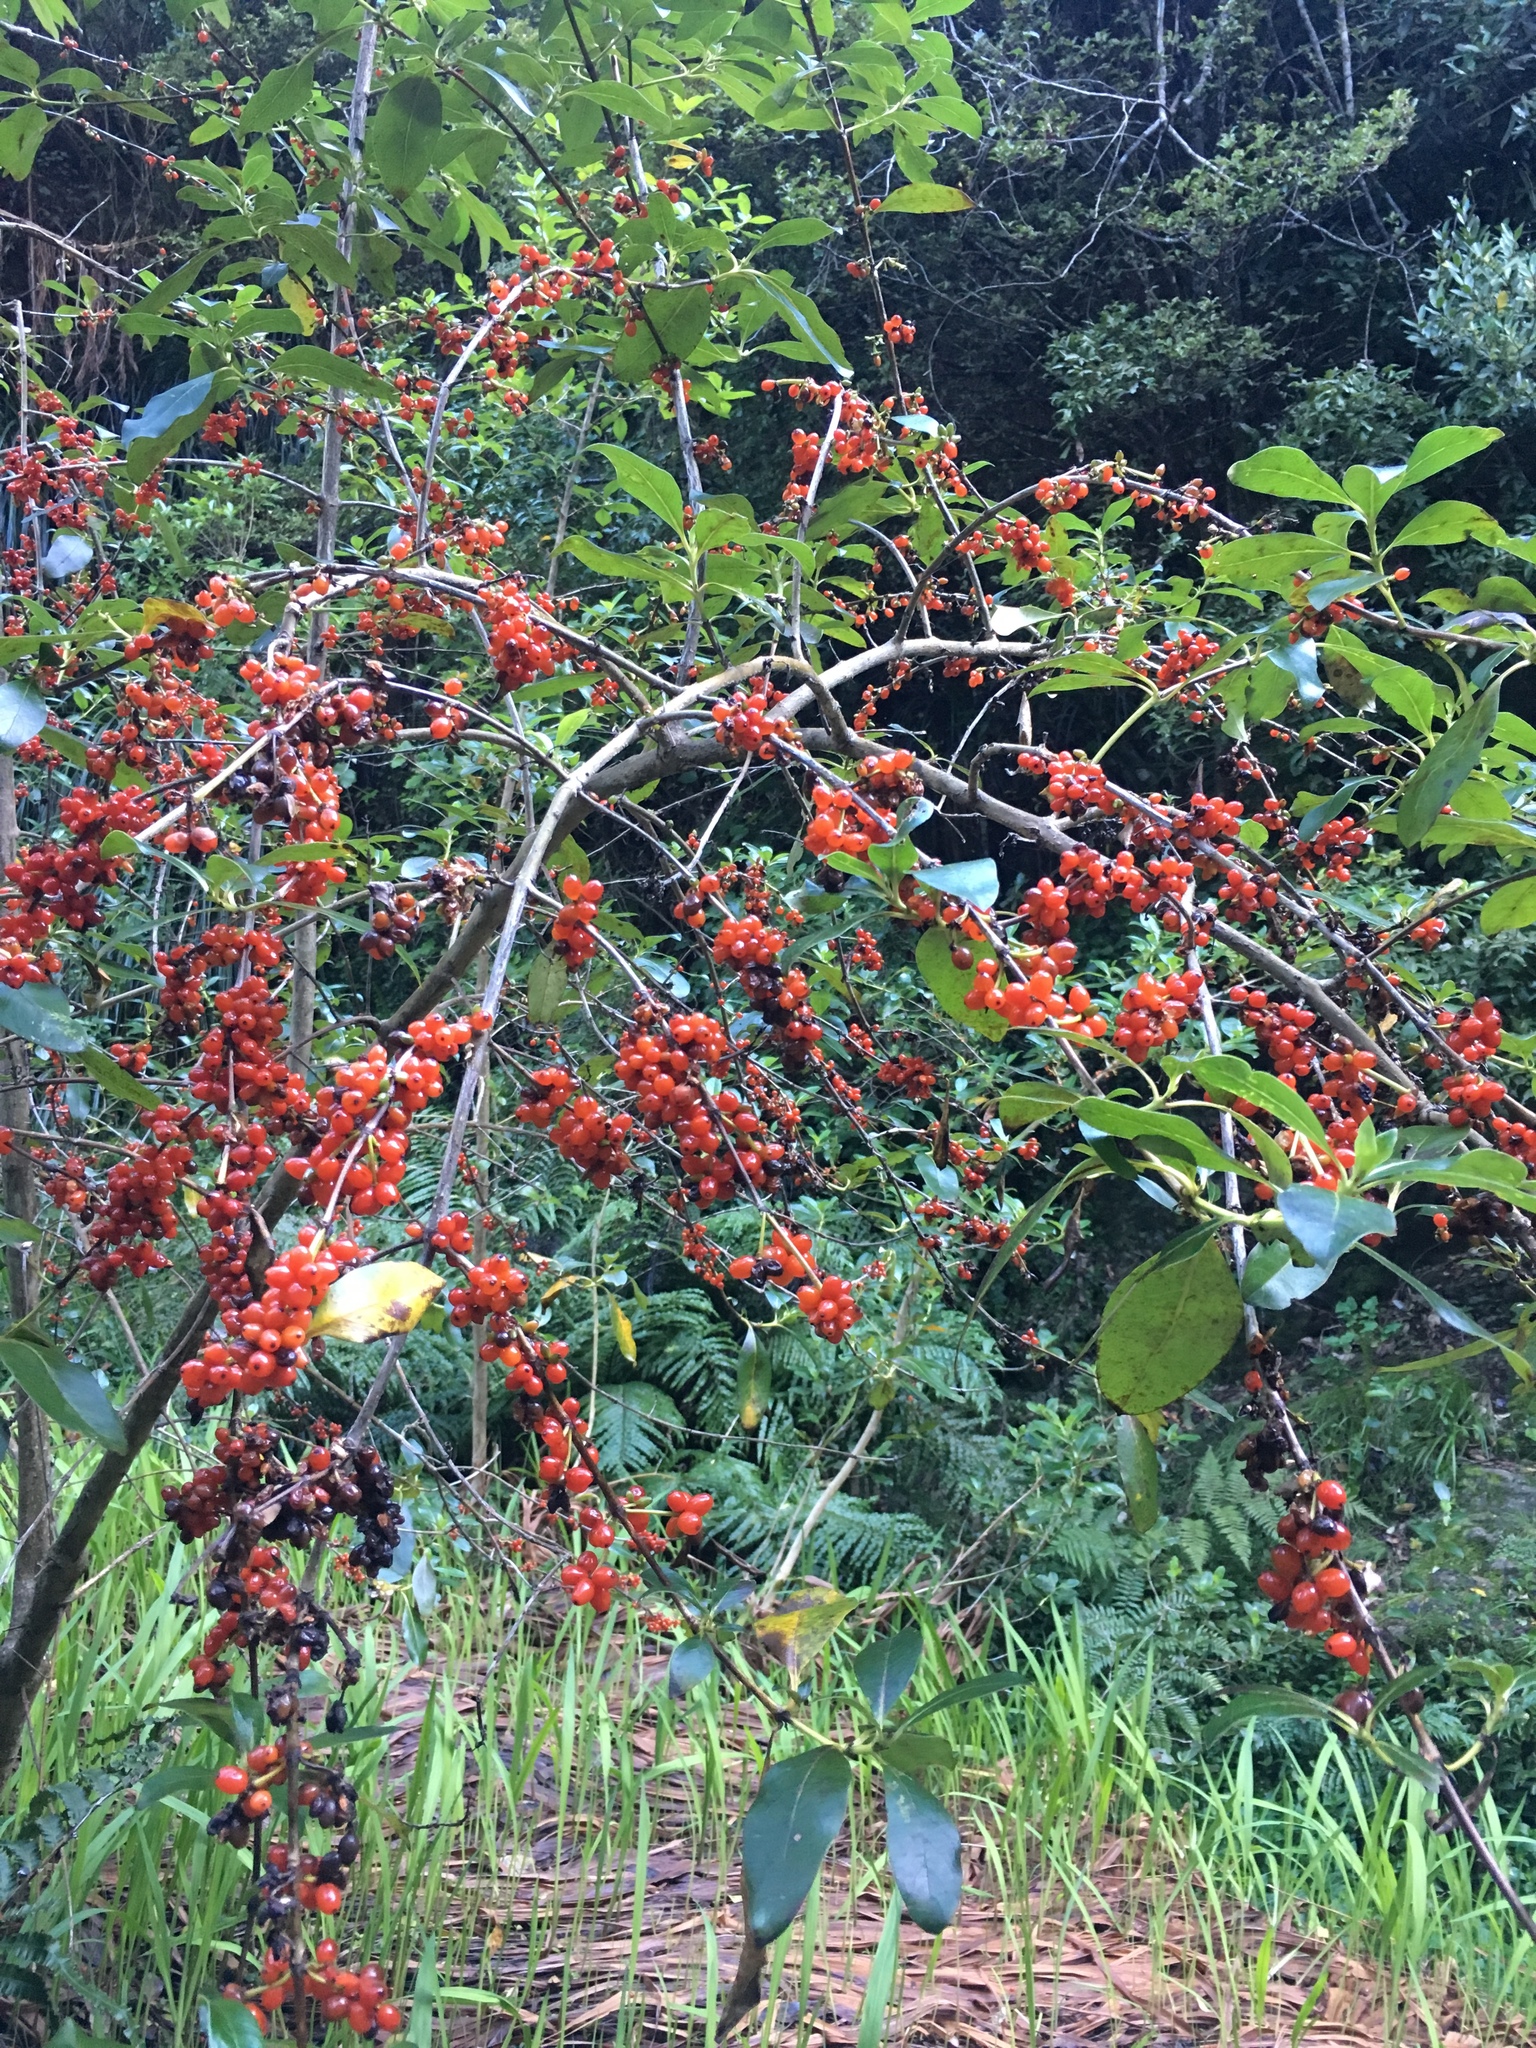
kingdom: Plantae
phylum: Tracheophyta
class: Magnoliopsida
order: Gentianales
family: Rubiaceae
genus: Coprosma
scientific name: Coprosma robusta
